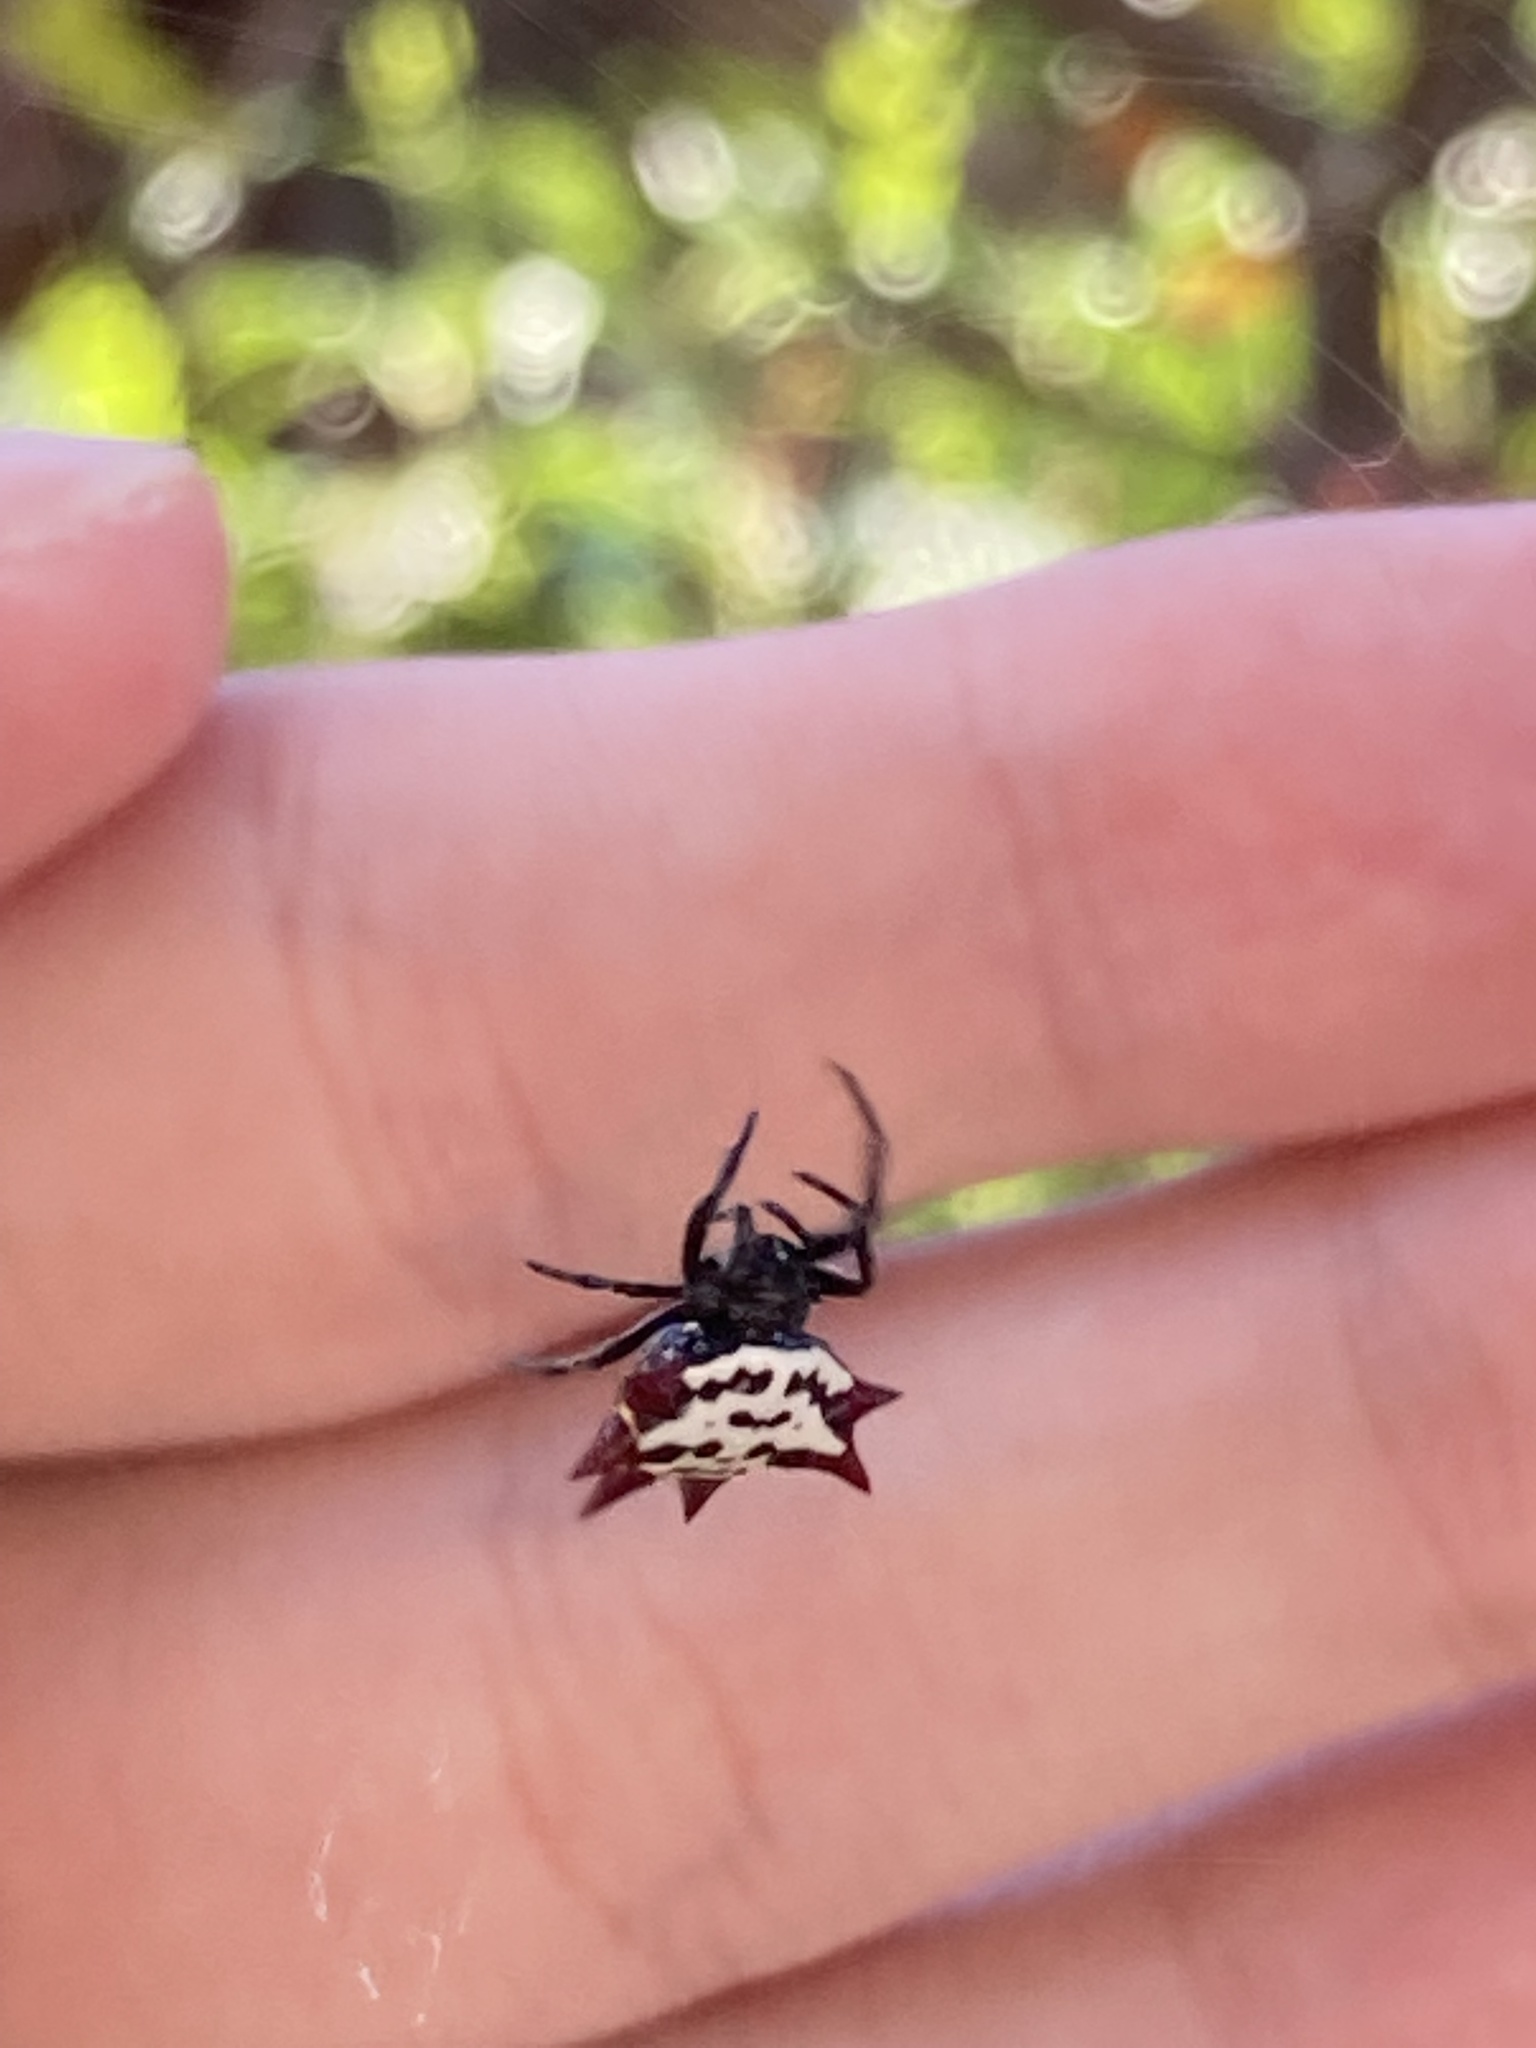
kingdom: Animalia
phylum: Arthropoda
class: Arachnida
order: Araneae
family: Araneidae
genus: Gasteracantha
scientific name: Gasteracantha cancriformis
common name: Orb weavers
